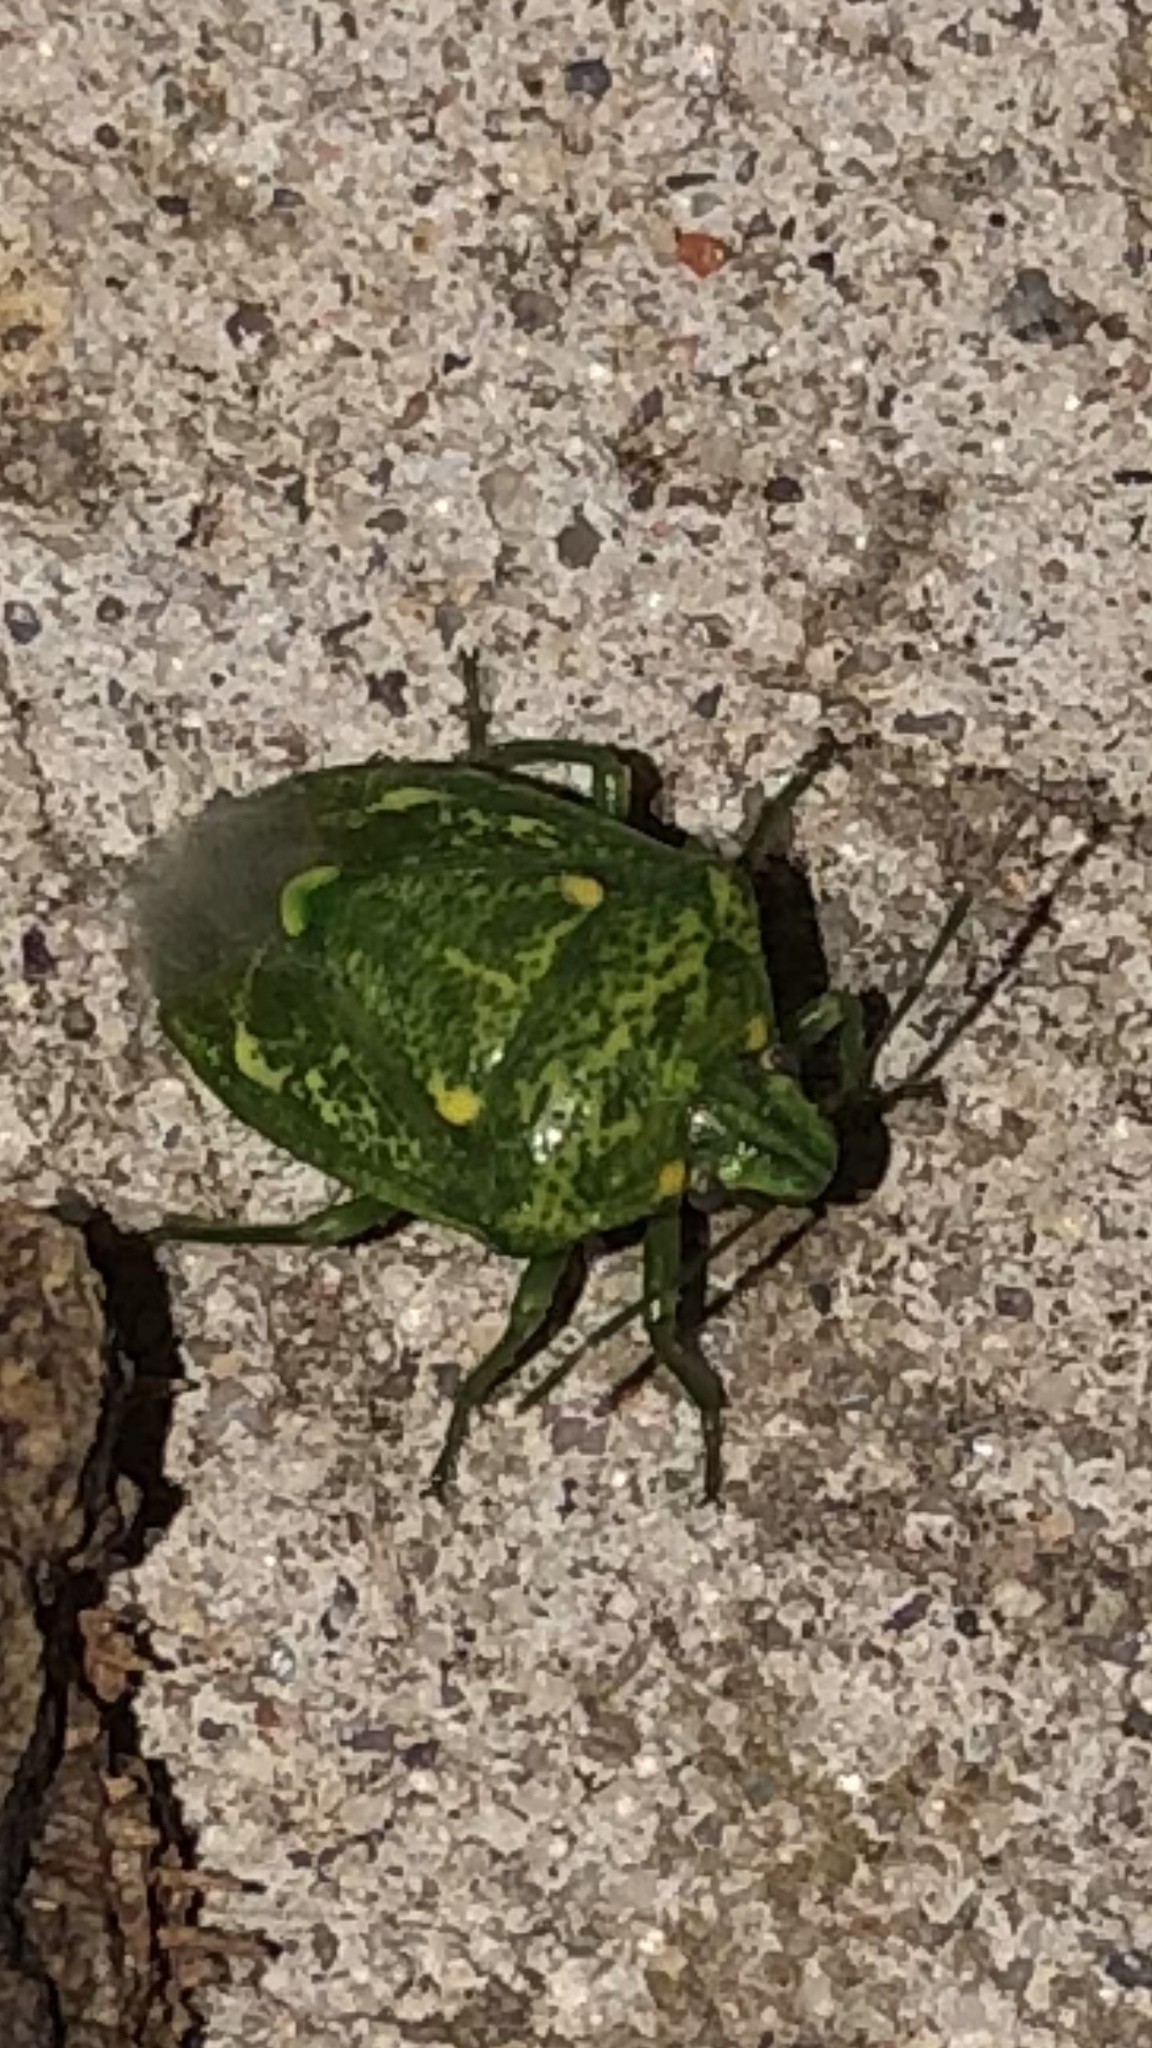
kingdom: Animalia
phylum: Arthropoda
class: Insecta
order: Hemiptera
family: Pentatomidae
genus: Banasa
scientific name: Banasa euchlora
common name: Cedar berry bug
